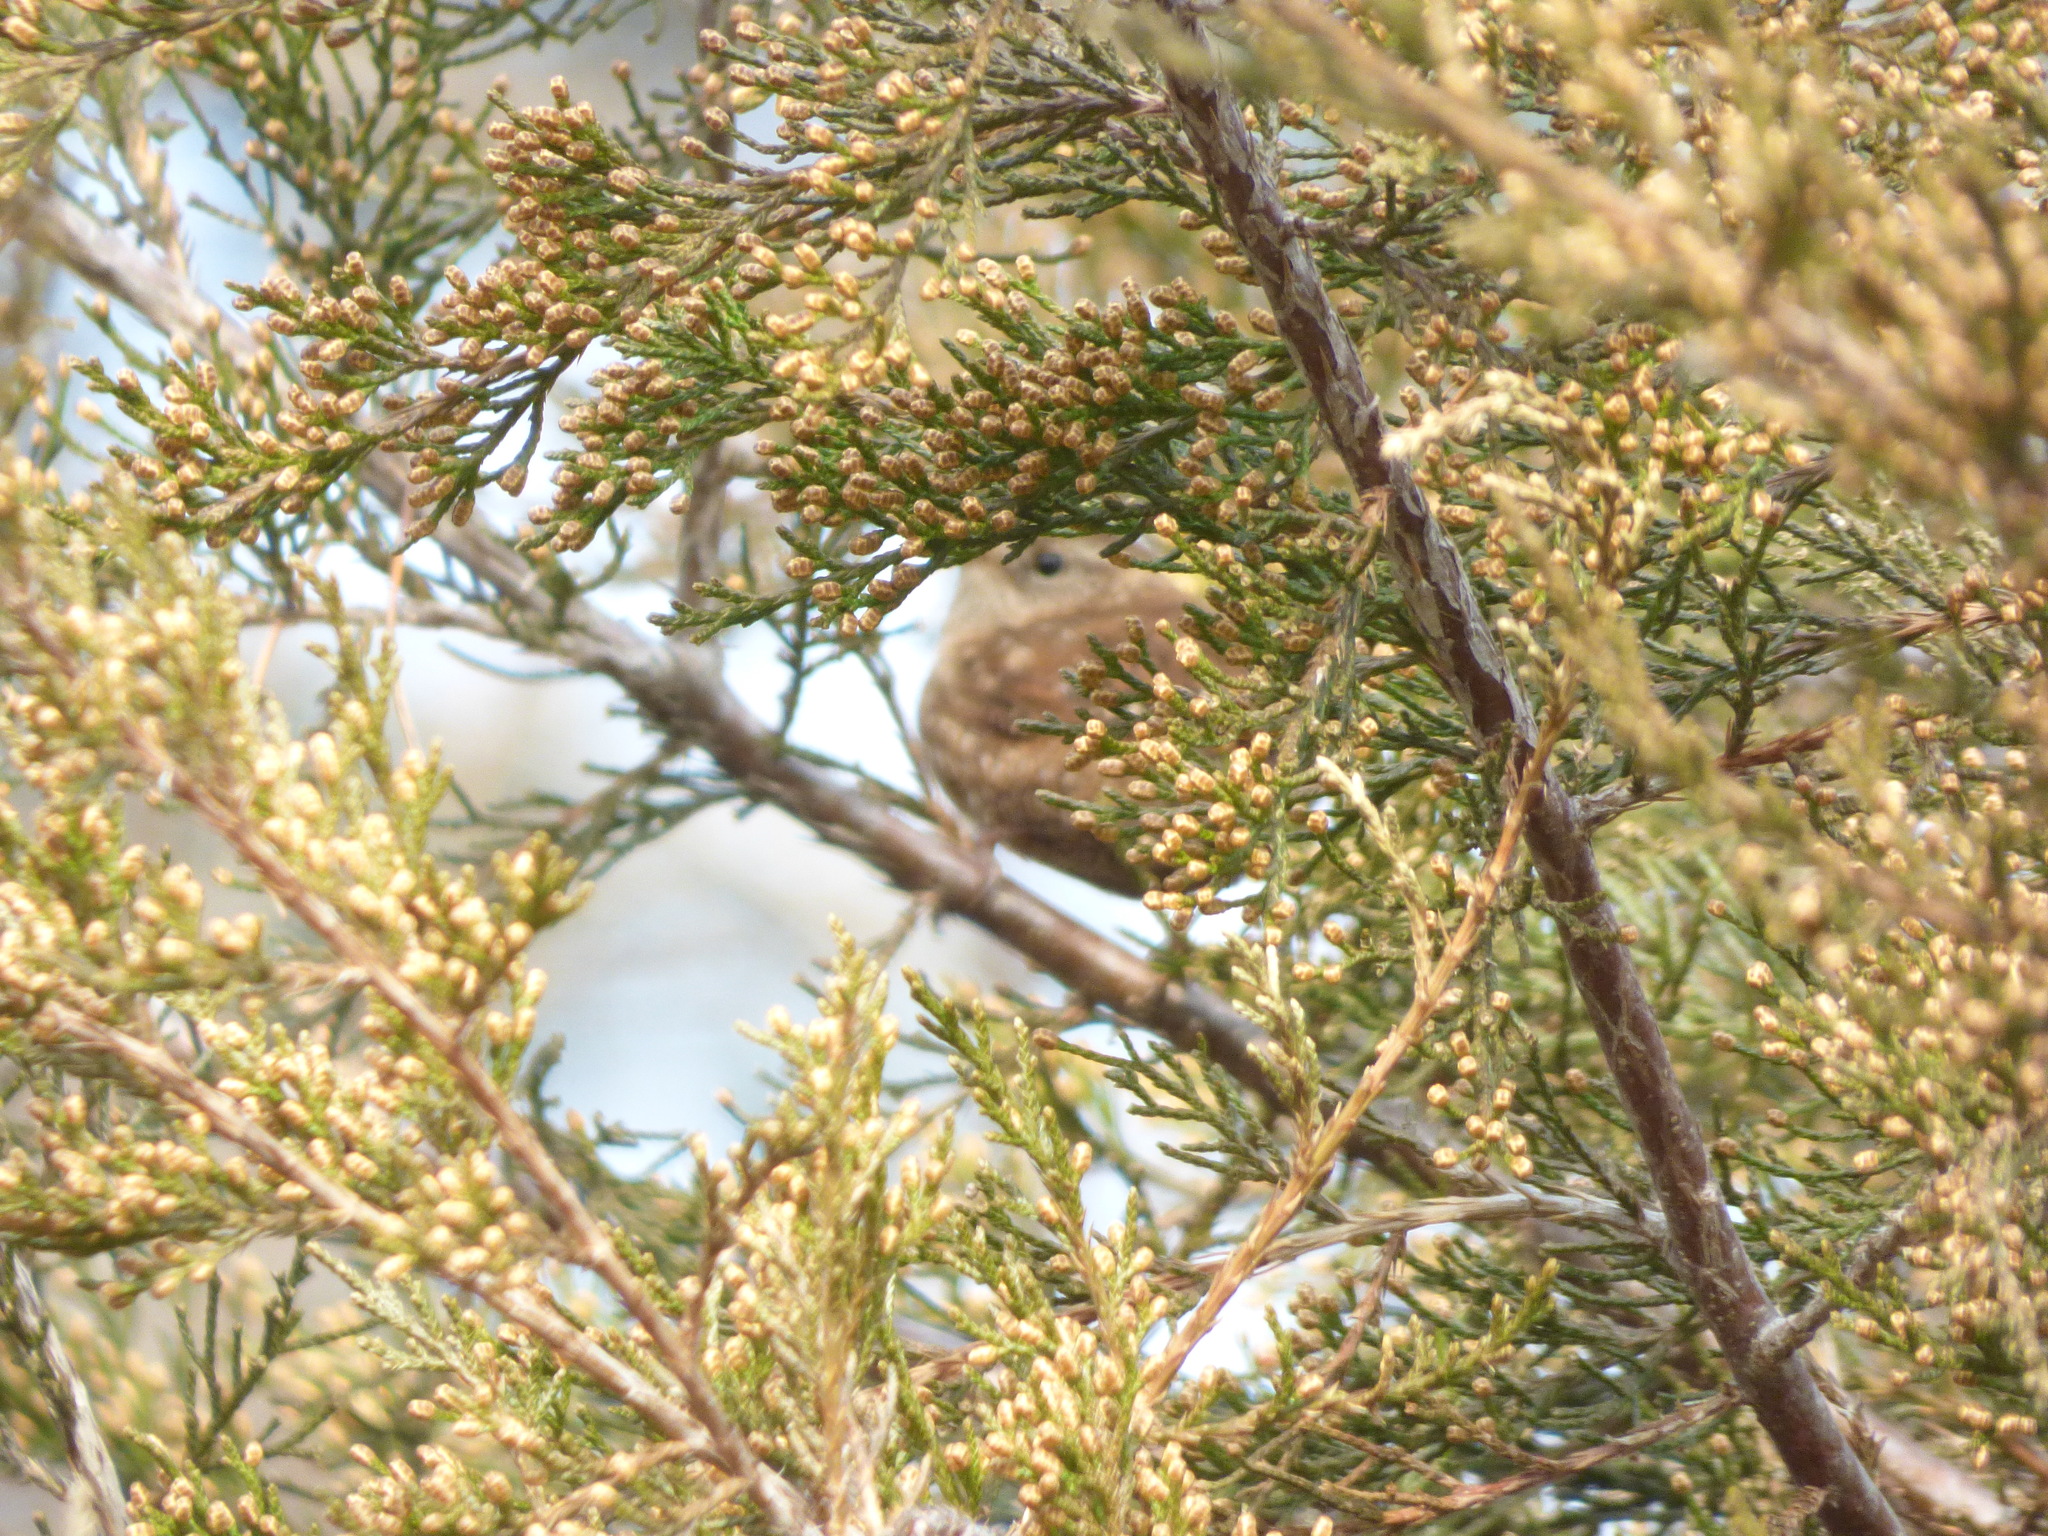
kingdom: Animalia
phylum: Chordata
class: Aves
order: Passeriformes
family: Troglodytidae
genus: Troglodytes
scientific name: Troglodytes aedon
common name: House wren
